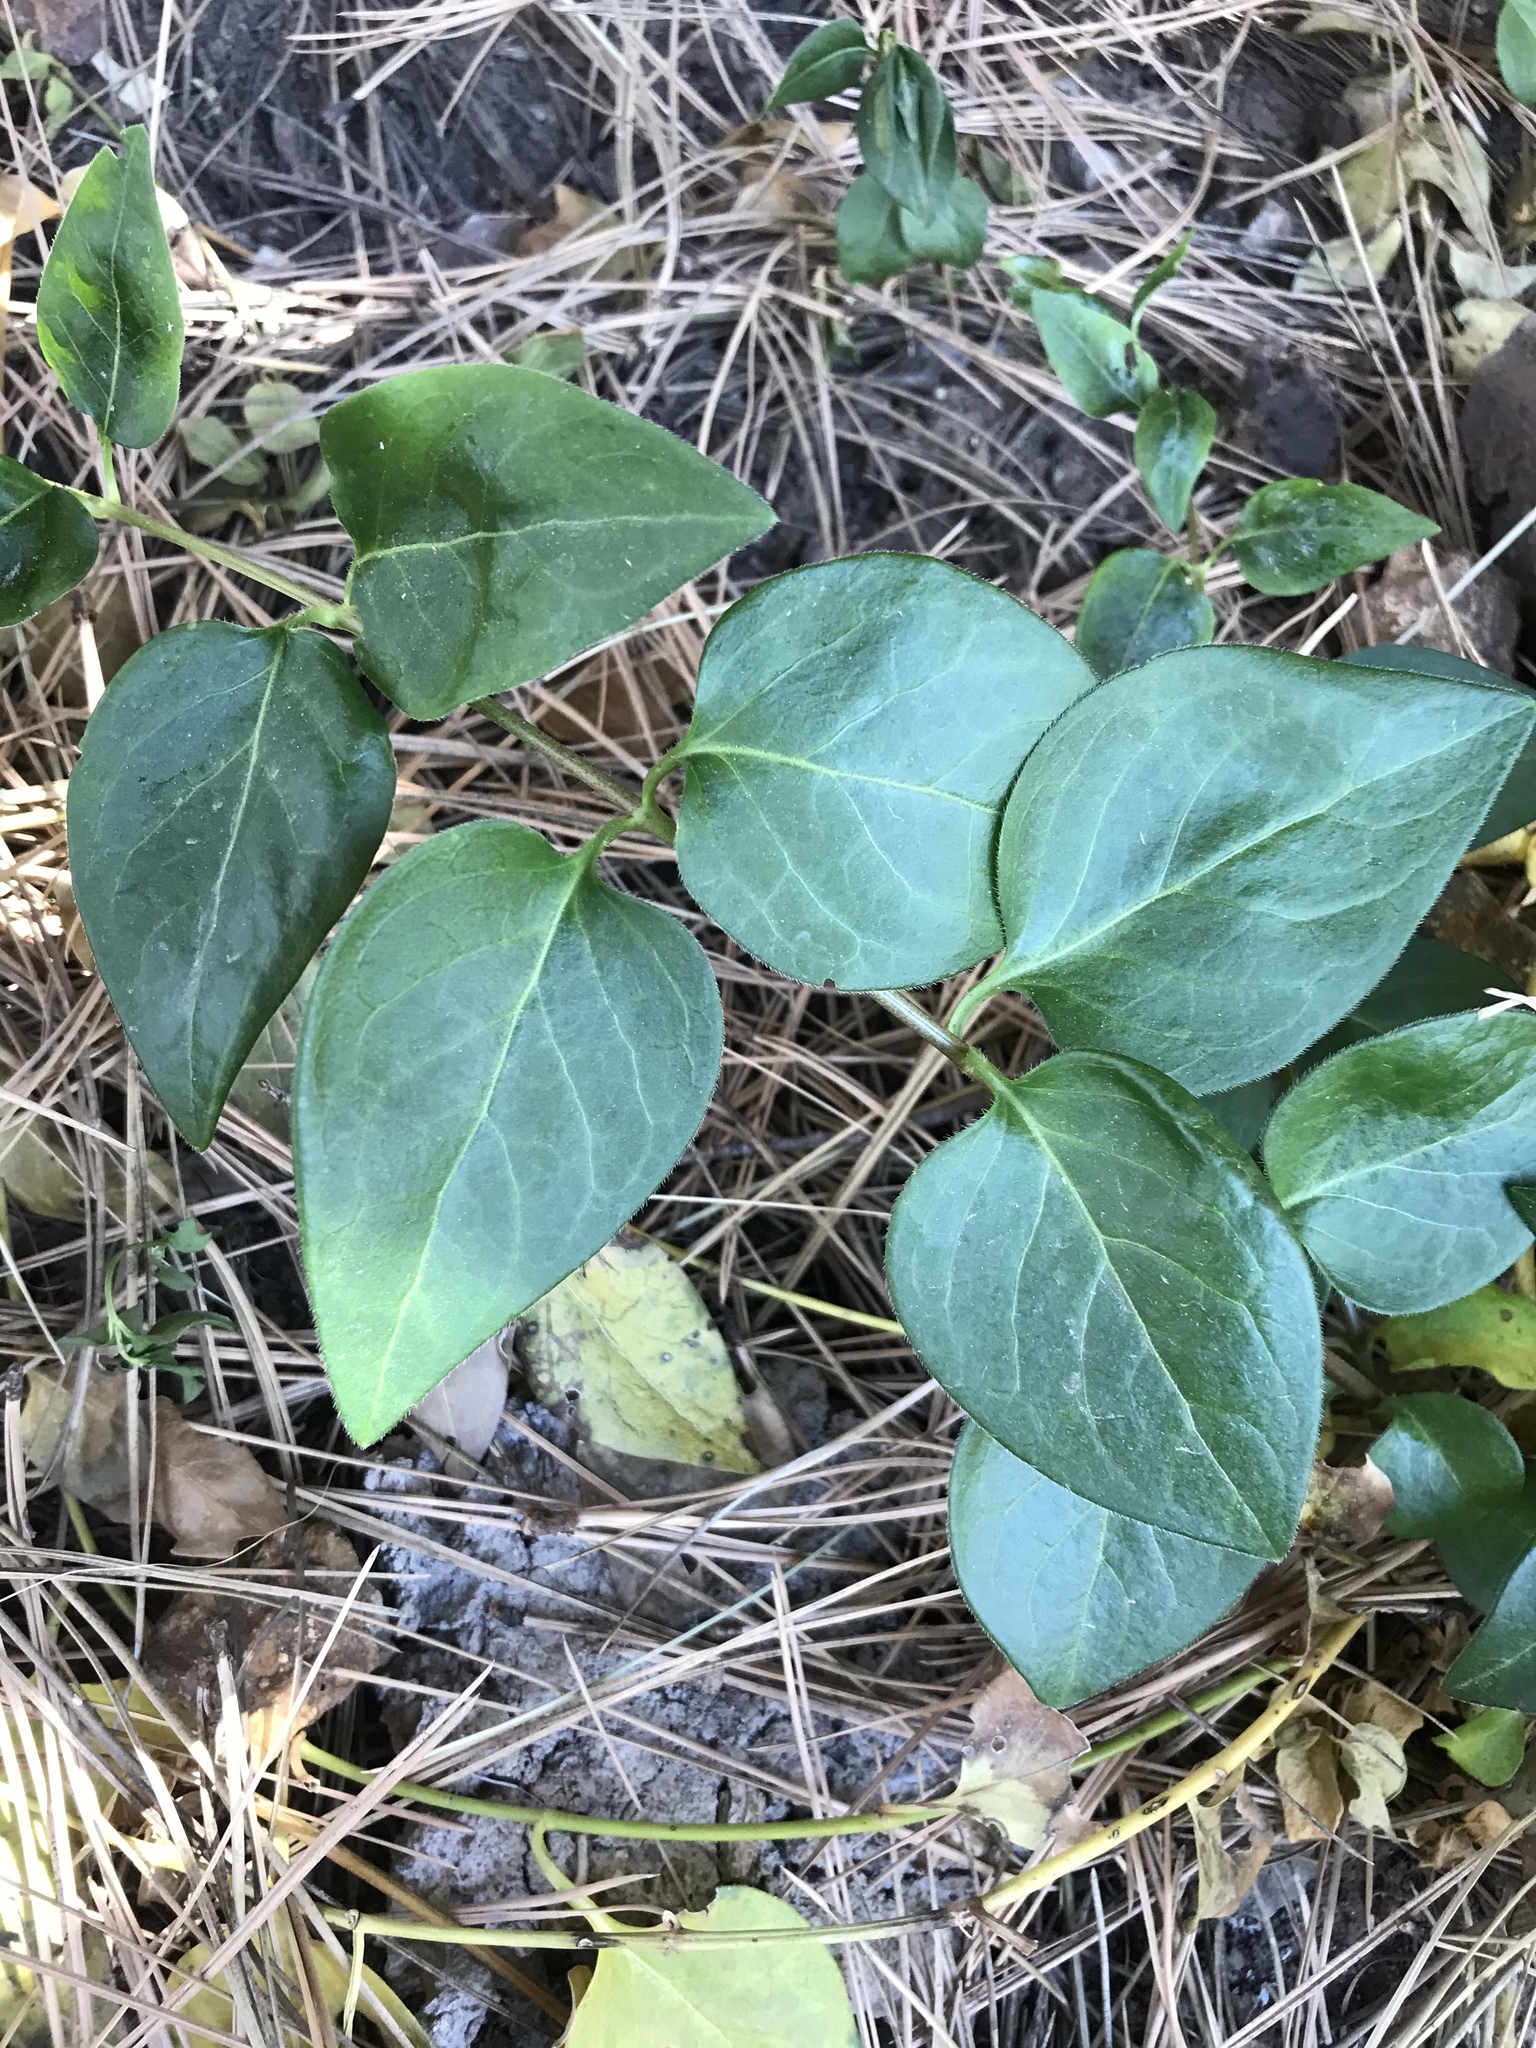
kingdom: Plantae
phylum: Tracheophyta
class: Magnoliopsida
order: Gentianales
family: Apocynaceae
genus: Vinca
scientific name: Vinca major
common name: Greater periwinkle
